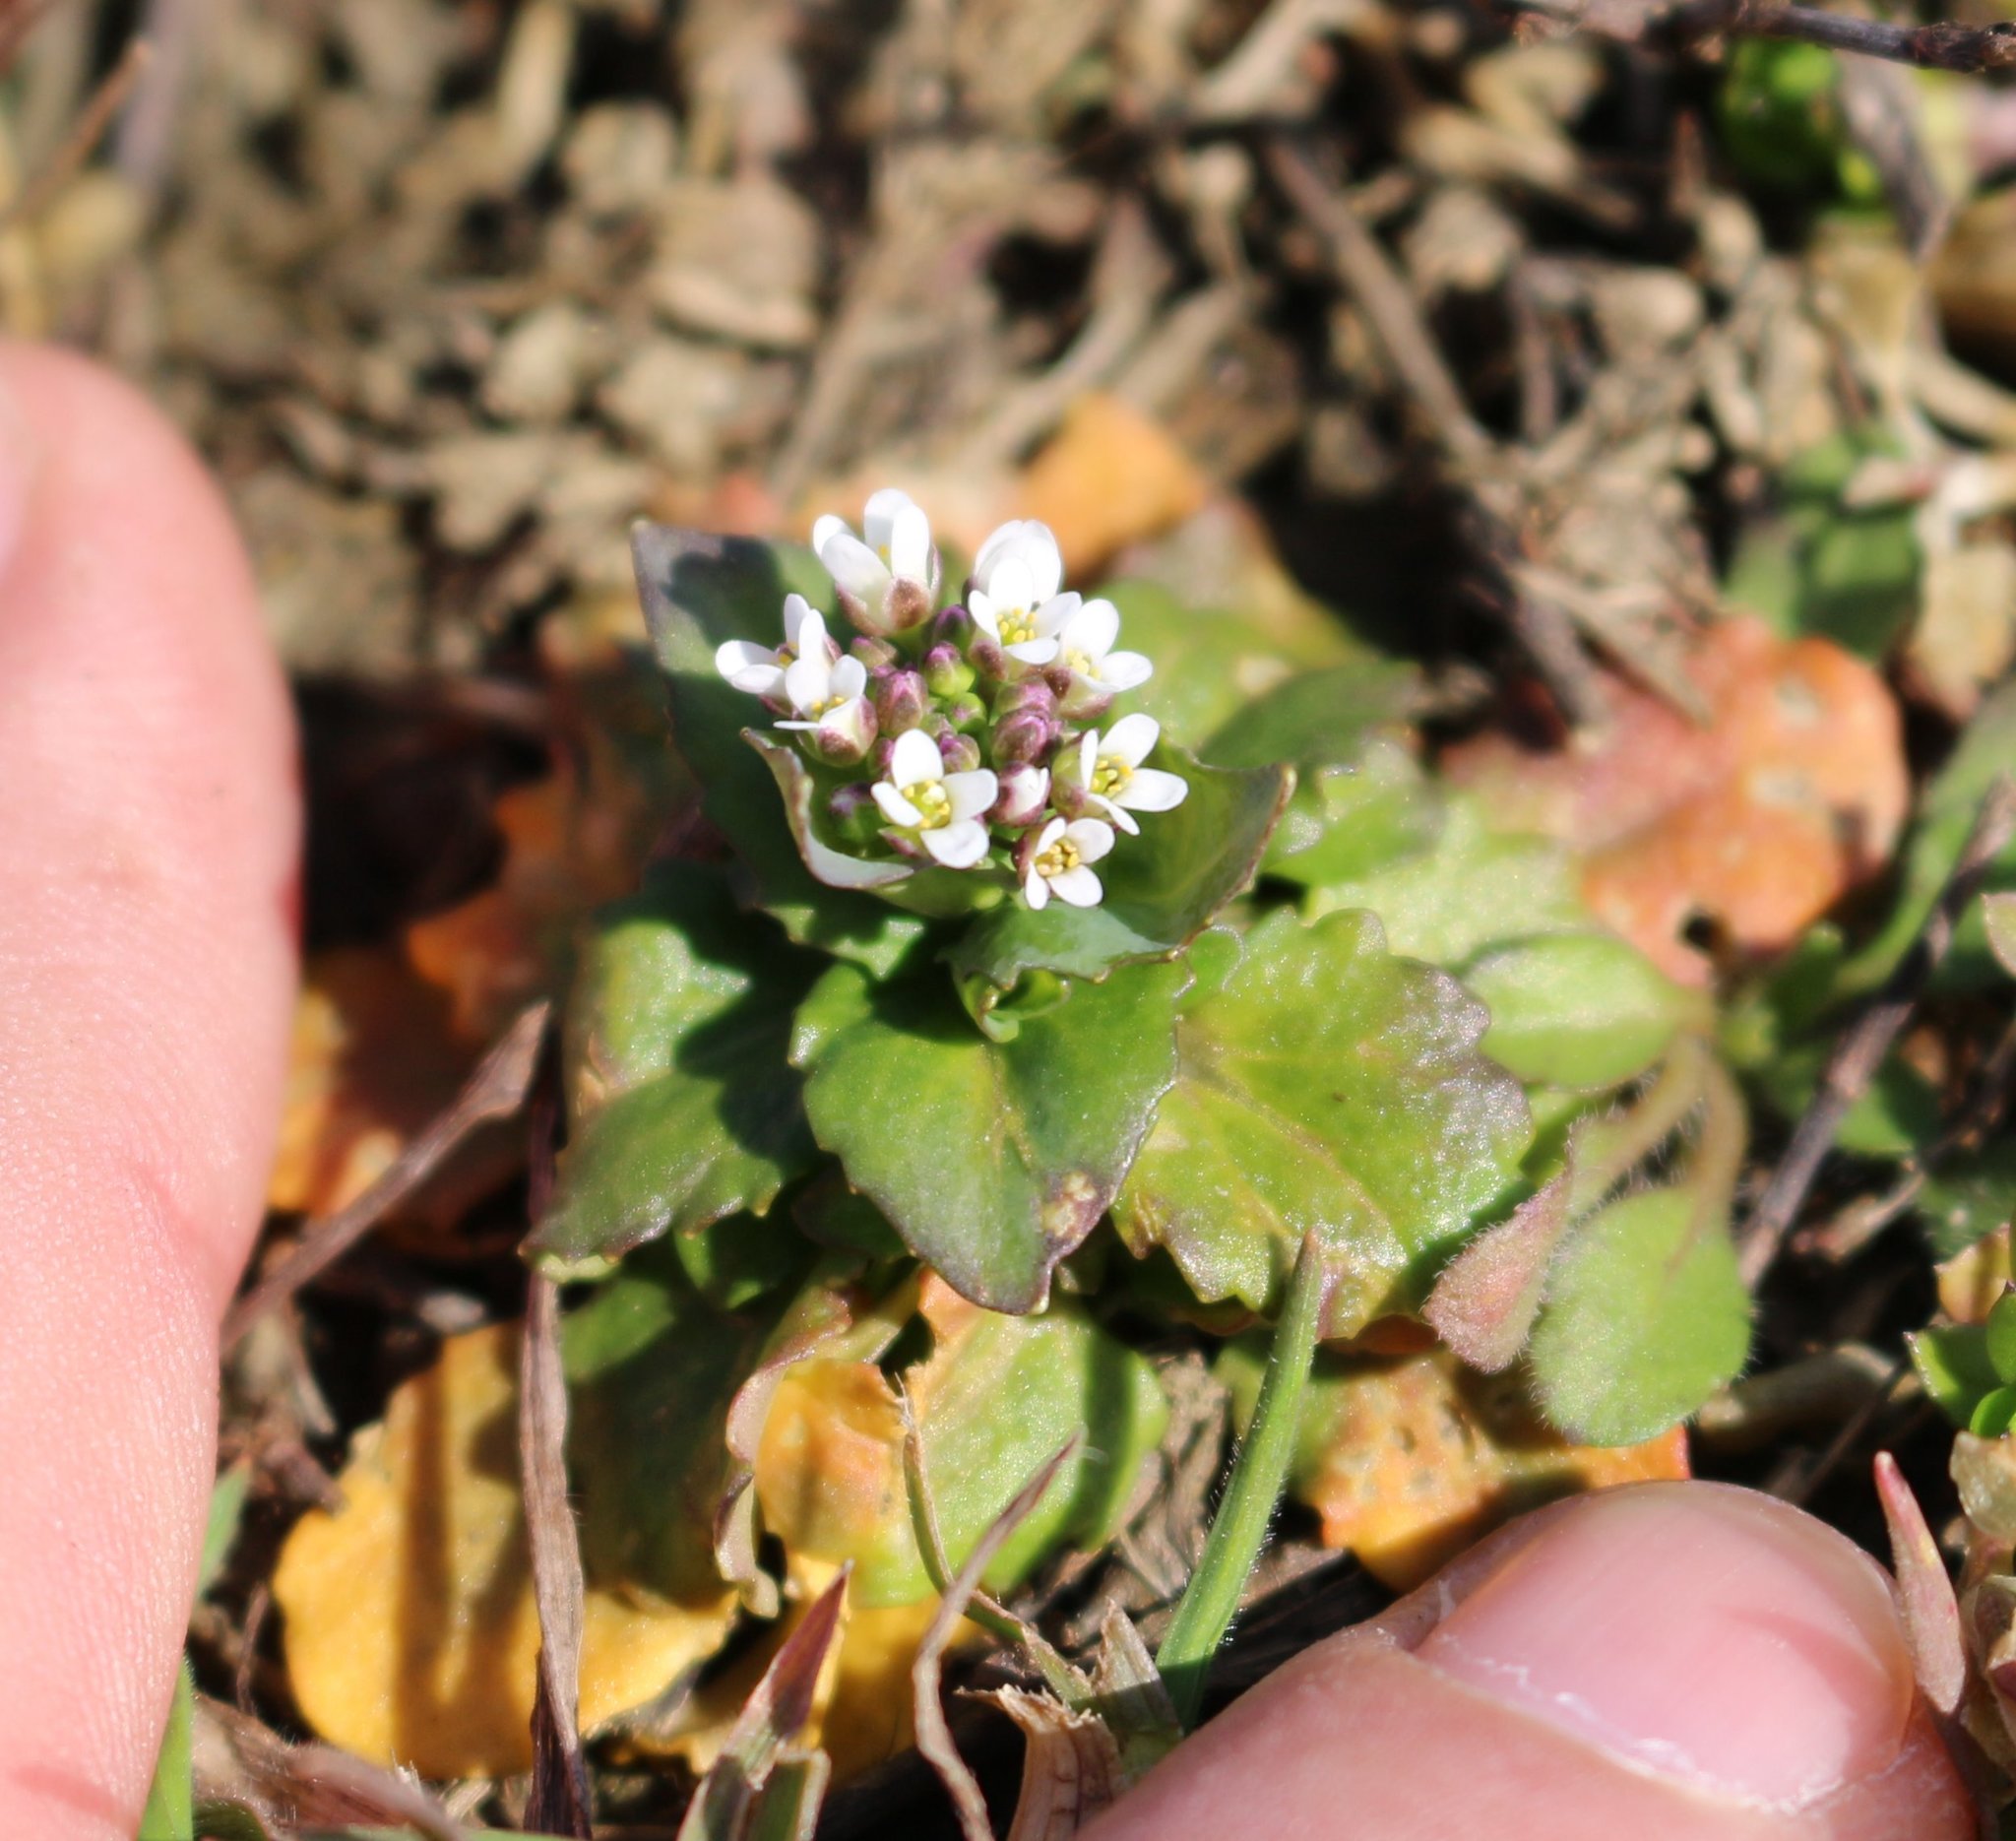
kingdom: Plantae
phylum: Tracheophyta
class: Magnoliopsida
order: Brassicales
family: Brassicaceae
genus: Noccaea
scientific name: Noccaea perfoliata
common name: Perfoliate pennycress
